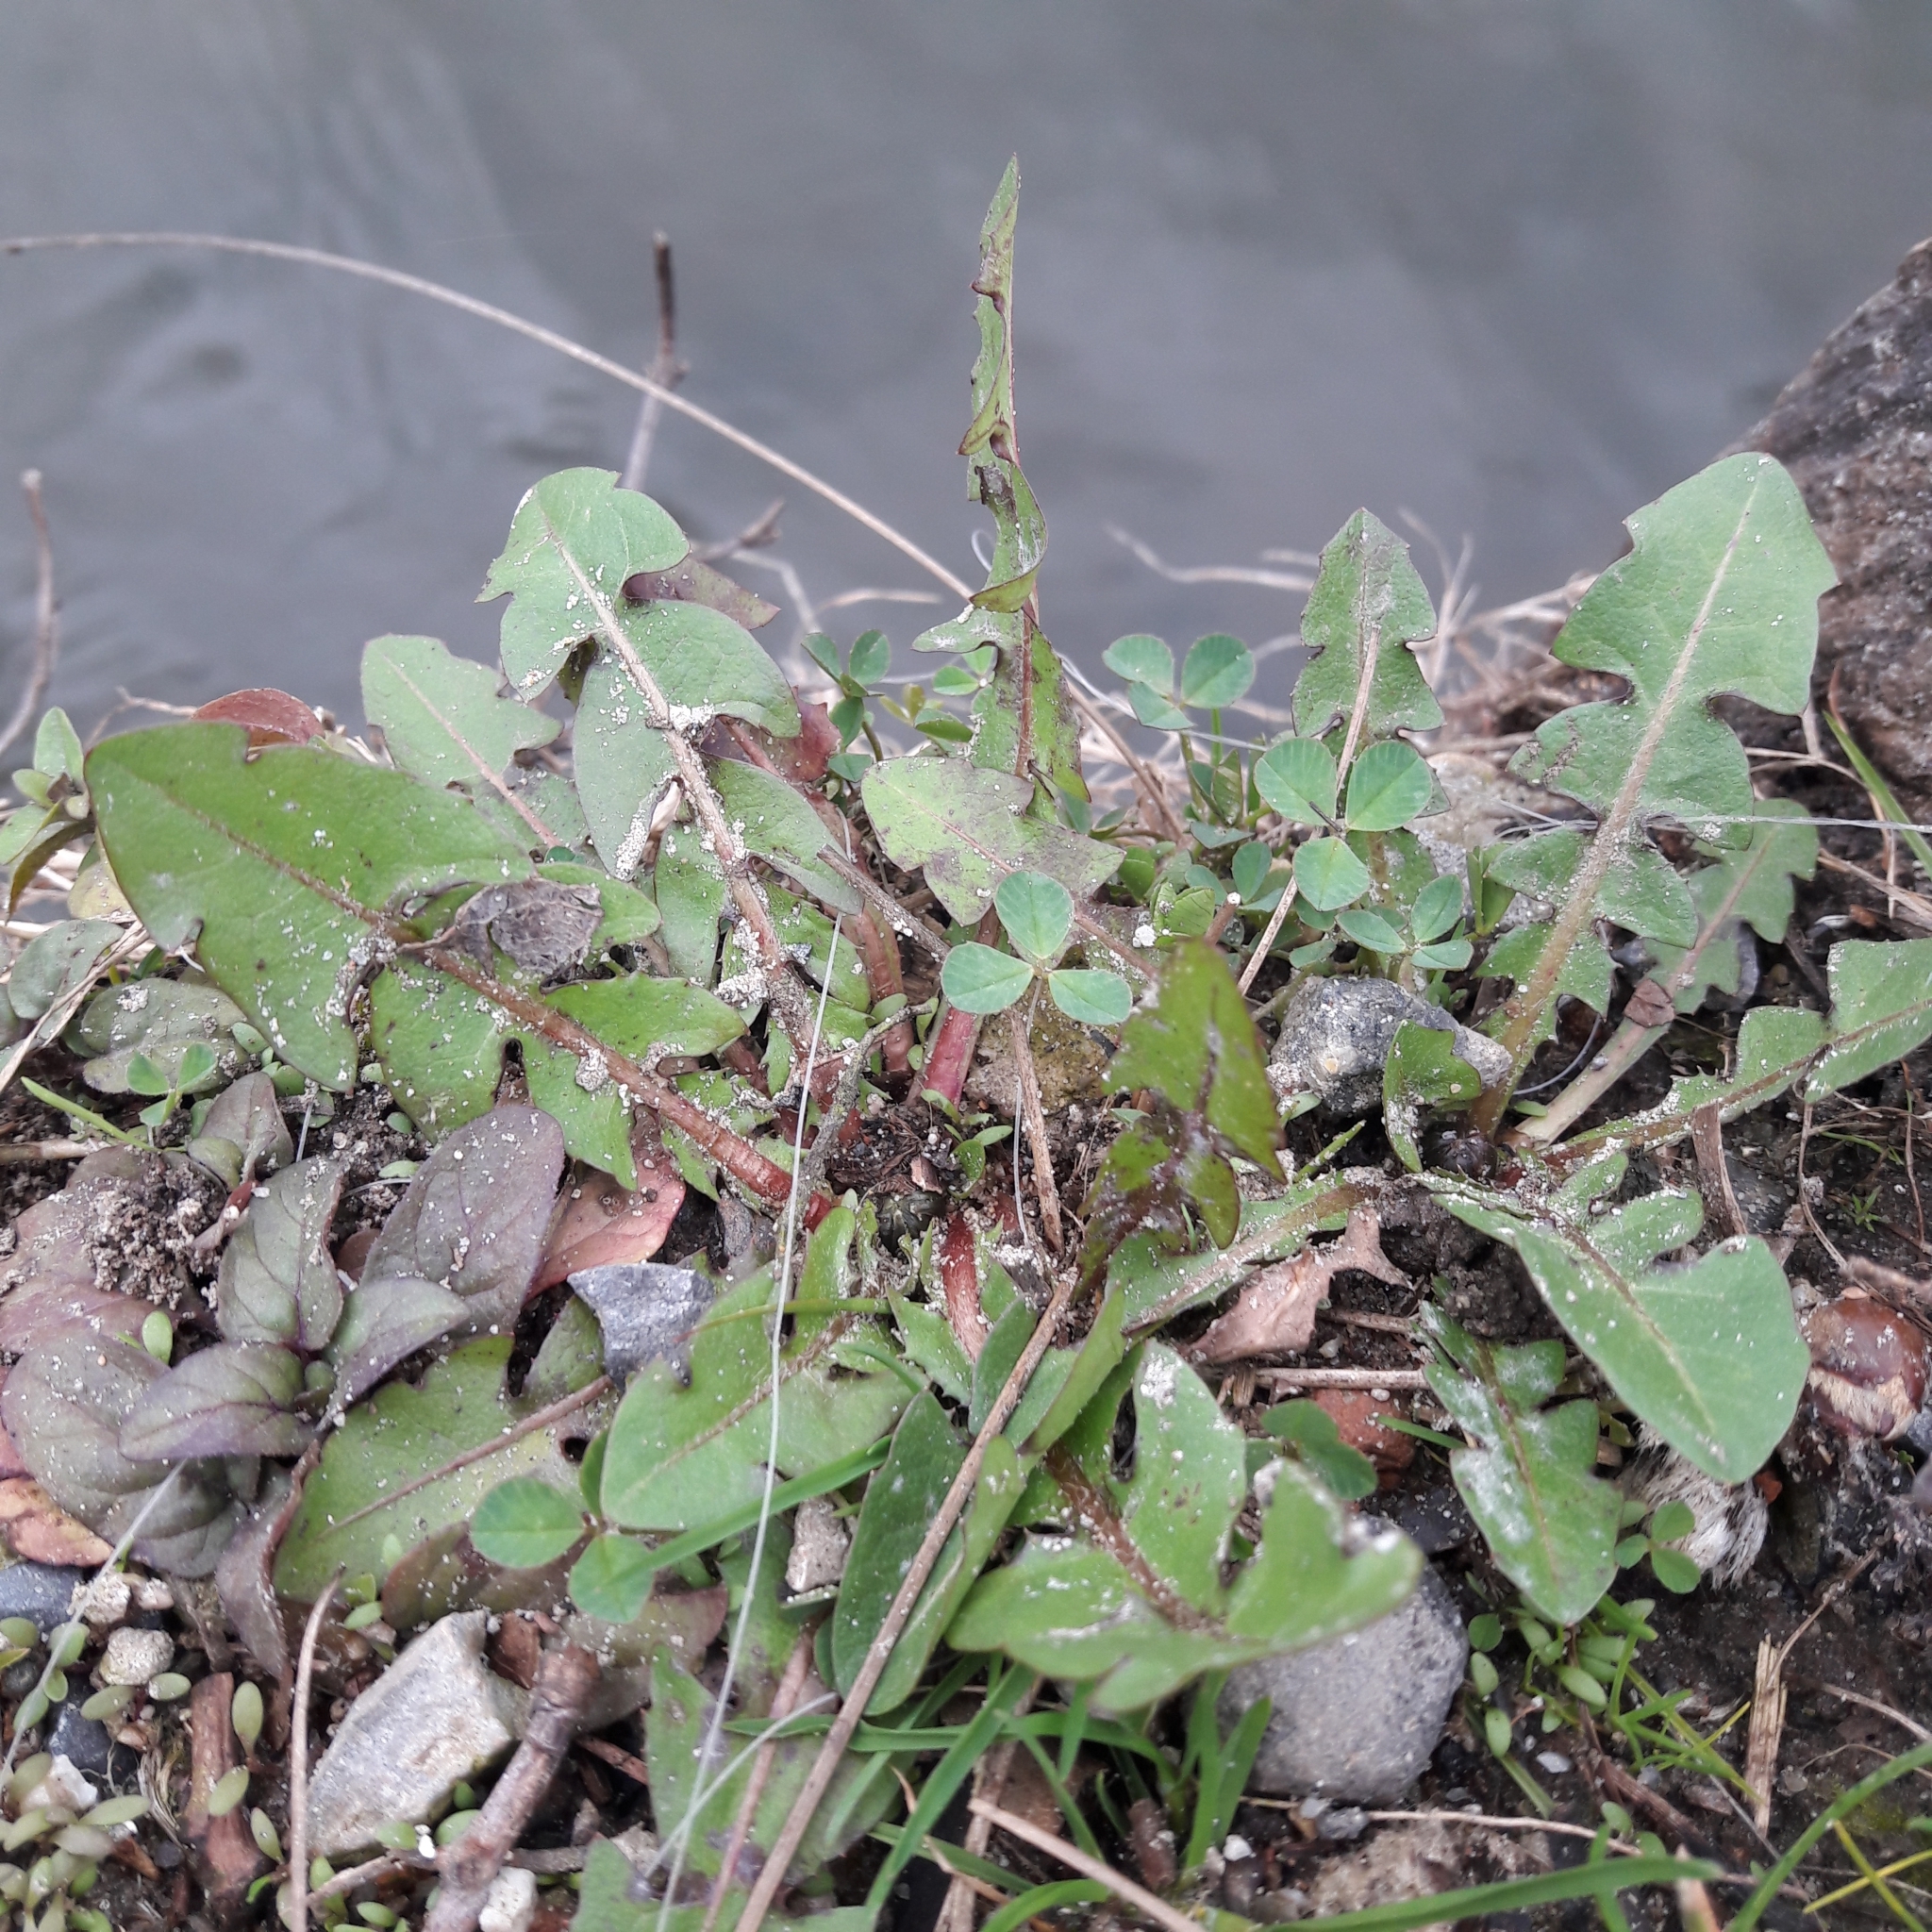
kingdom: Plantae
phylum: Tracheophyta
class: Magnoliopsida
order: Asterales
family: Asteraceae
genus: Taraxacum
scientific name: Taraxacum officinale
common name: Common dandelion
